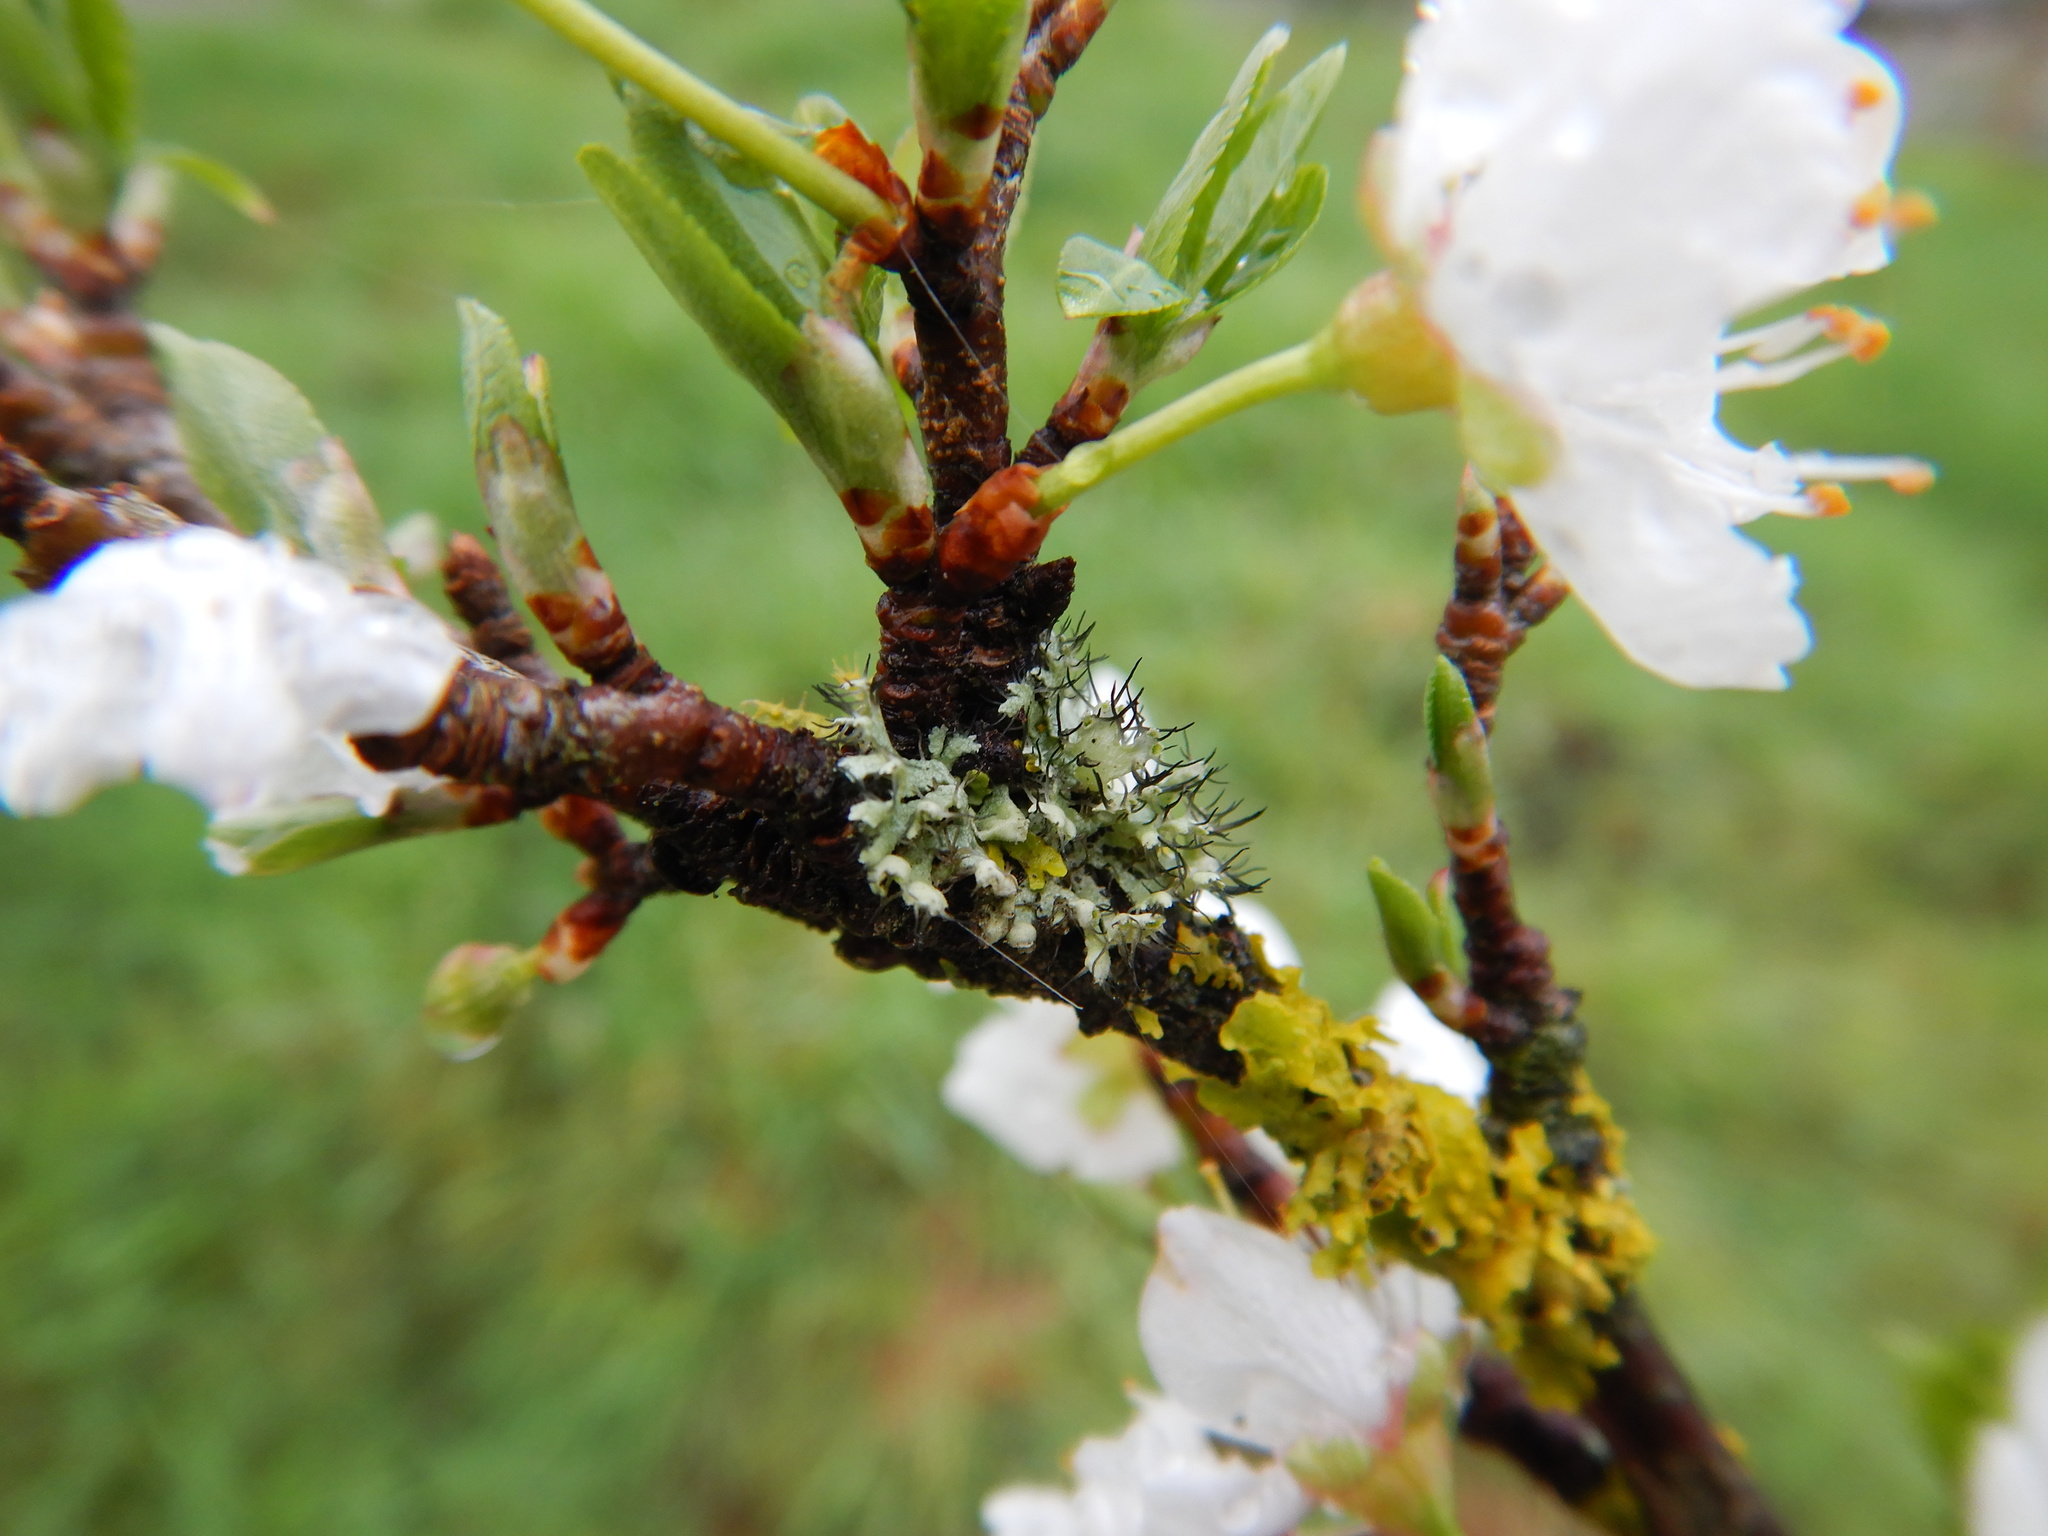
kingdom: Fungi
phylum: Ascomycota
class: Lecanoromycetes
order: Caliciales
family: Physciaceae
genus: Physcia
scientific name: Physcia adscendens
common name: Hooded rosette lichen
